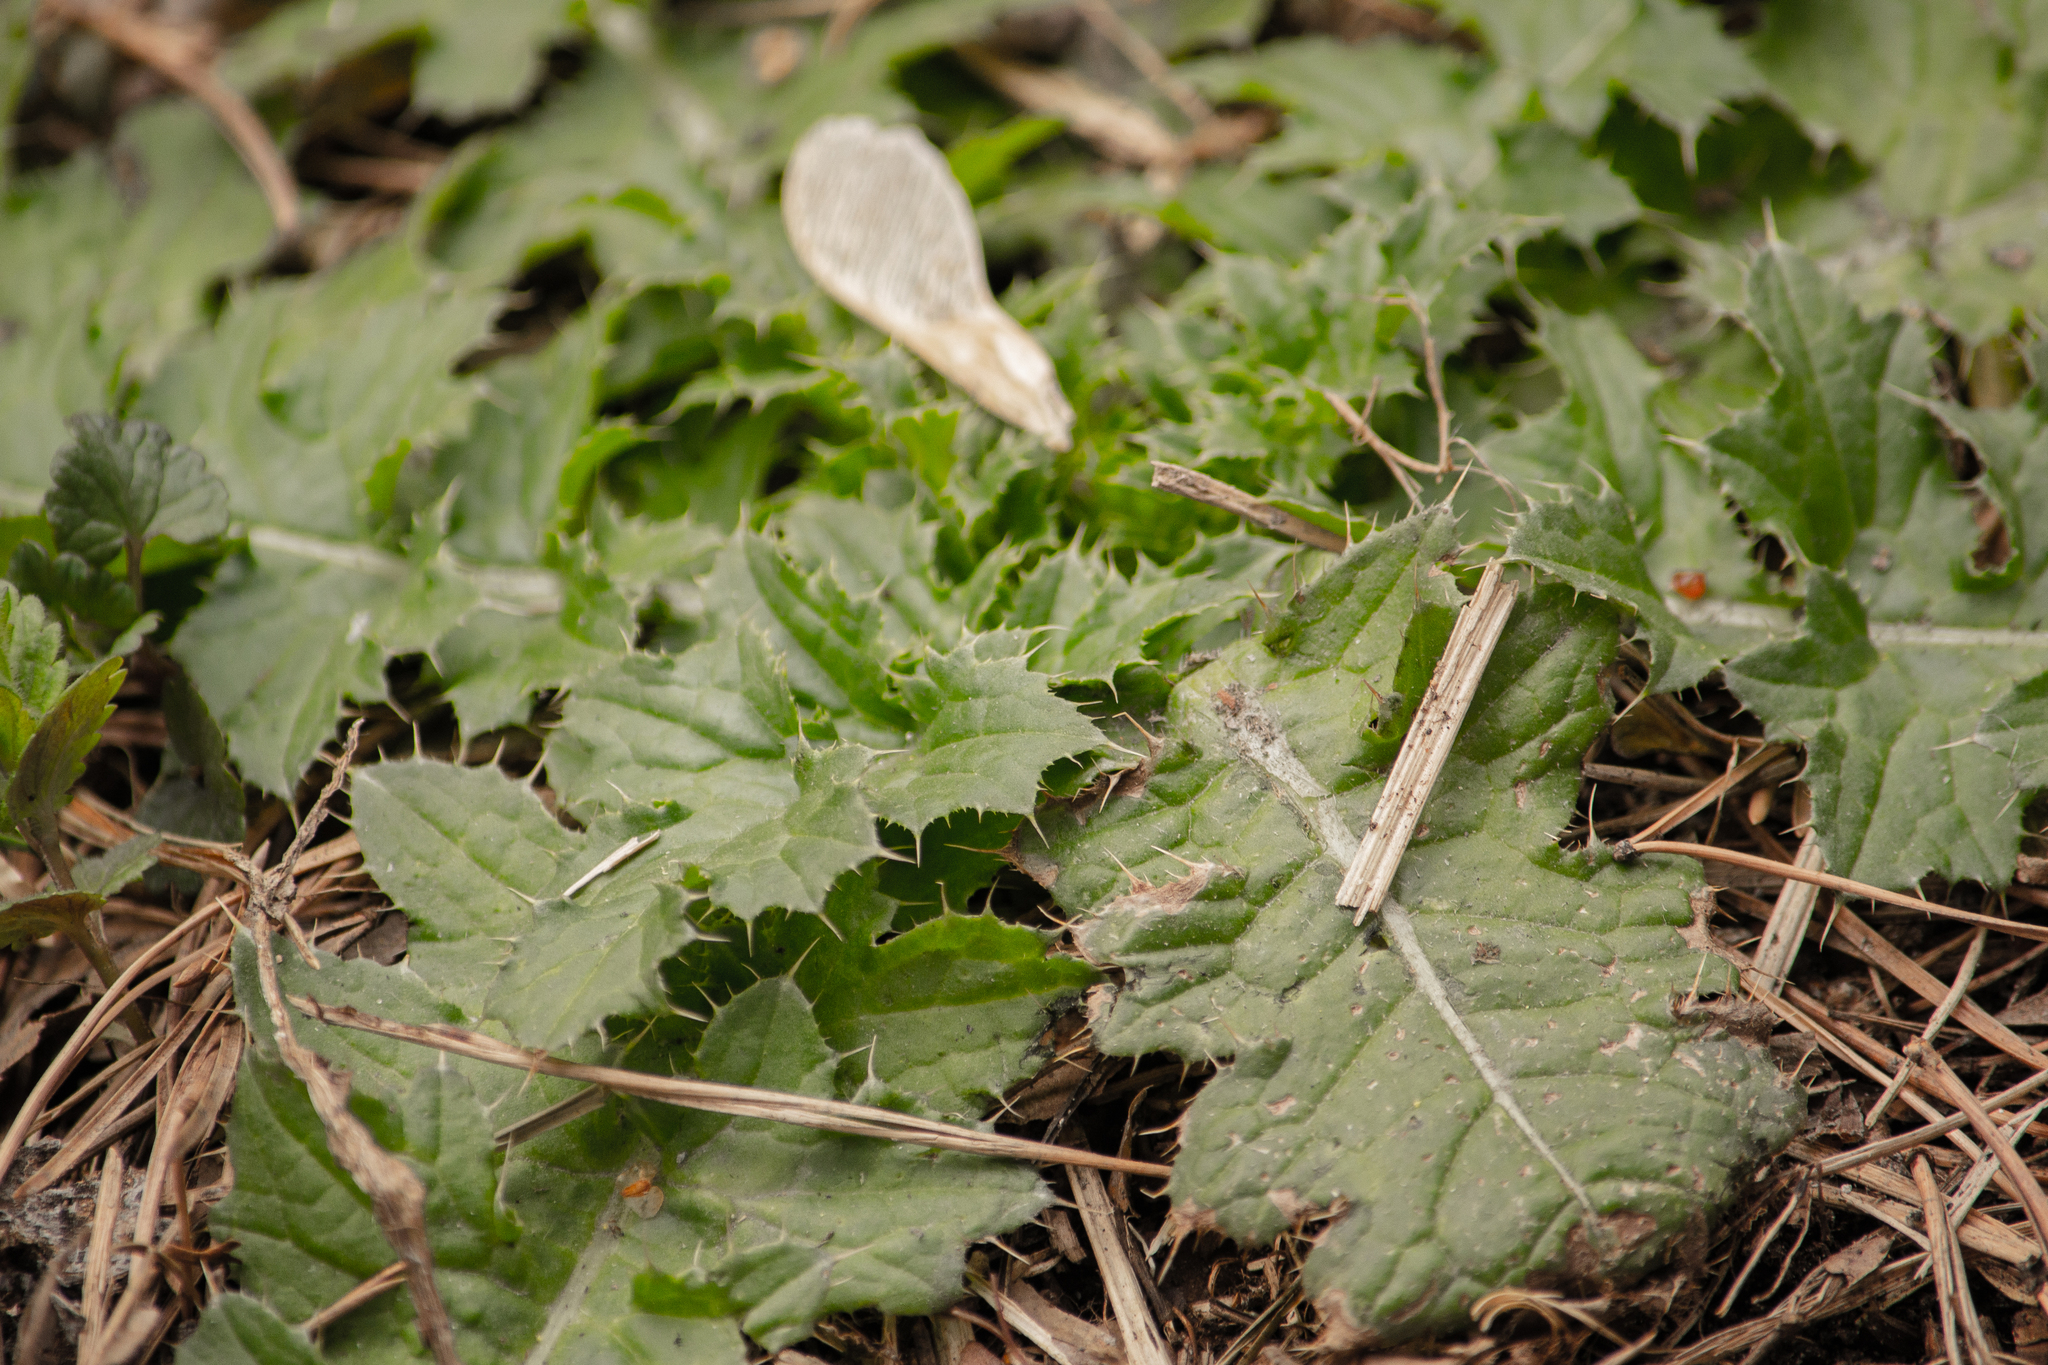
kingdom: Plantae
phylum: Tracheophyta
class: Magnoliopsida
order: Asterales
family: Asteraceae
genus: Carduus
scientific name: Carduus crispus
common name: Welted thistle
